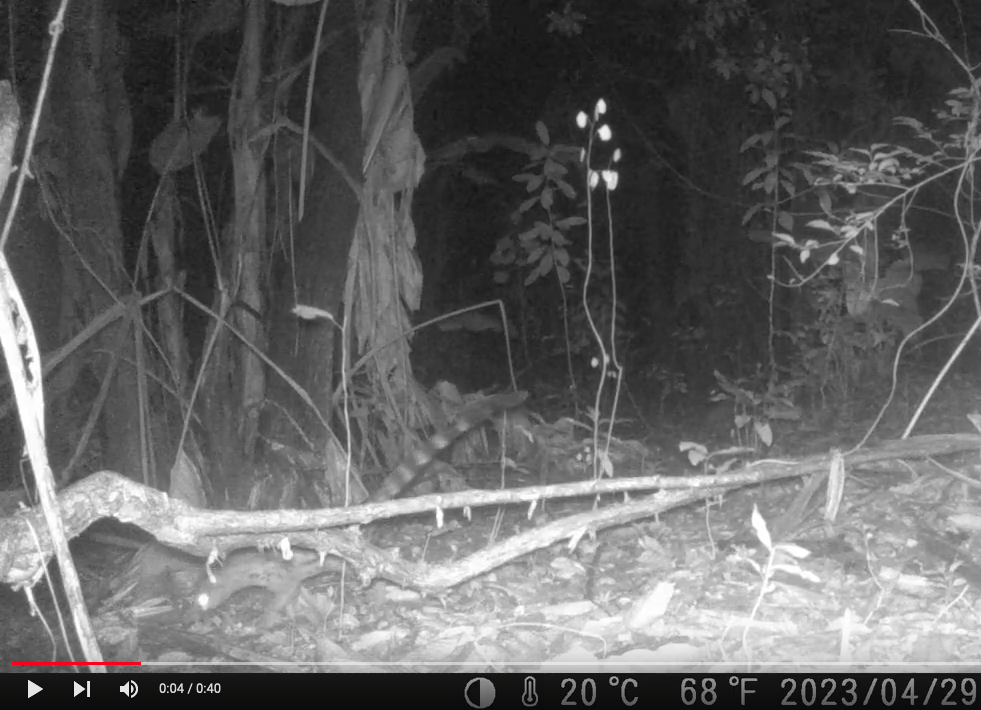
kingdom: Animalia
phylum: Chordata
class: Mammalia
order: Carnivora
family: Viverridae
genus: Genetta
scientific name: Genetta maculata
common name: Rusty-spotted genet
